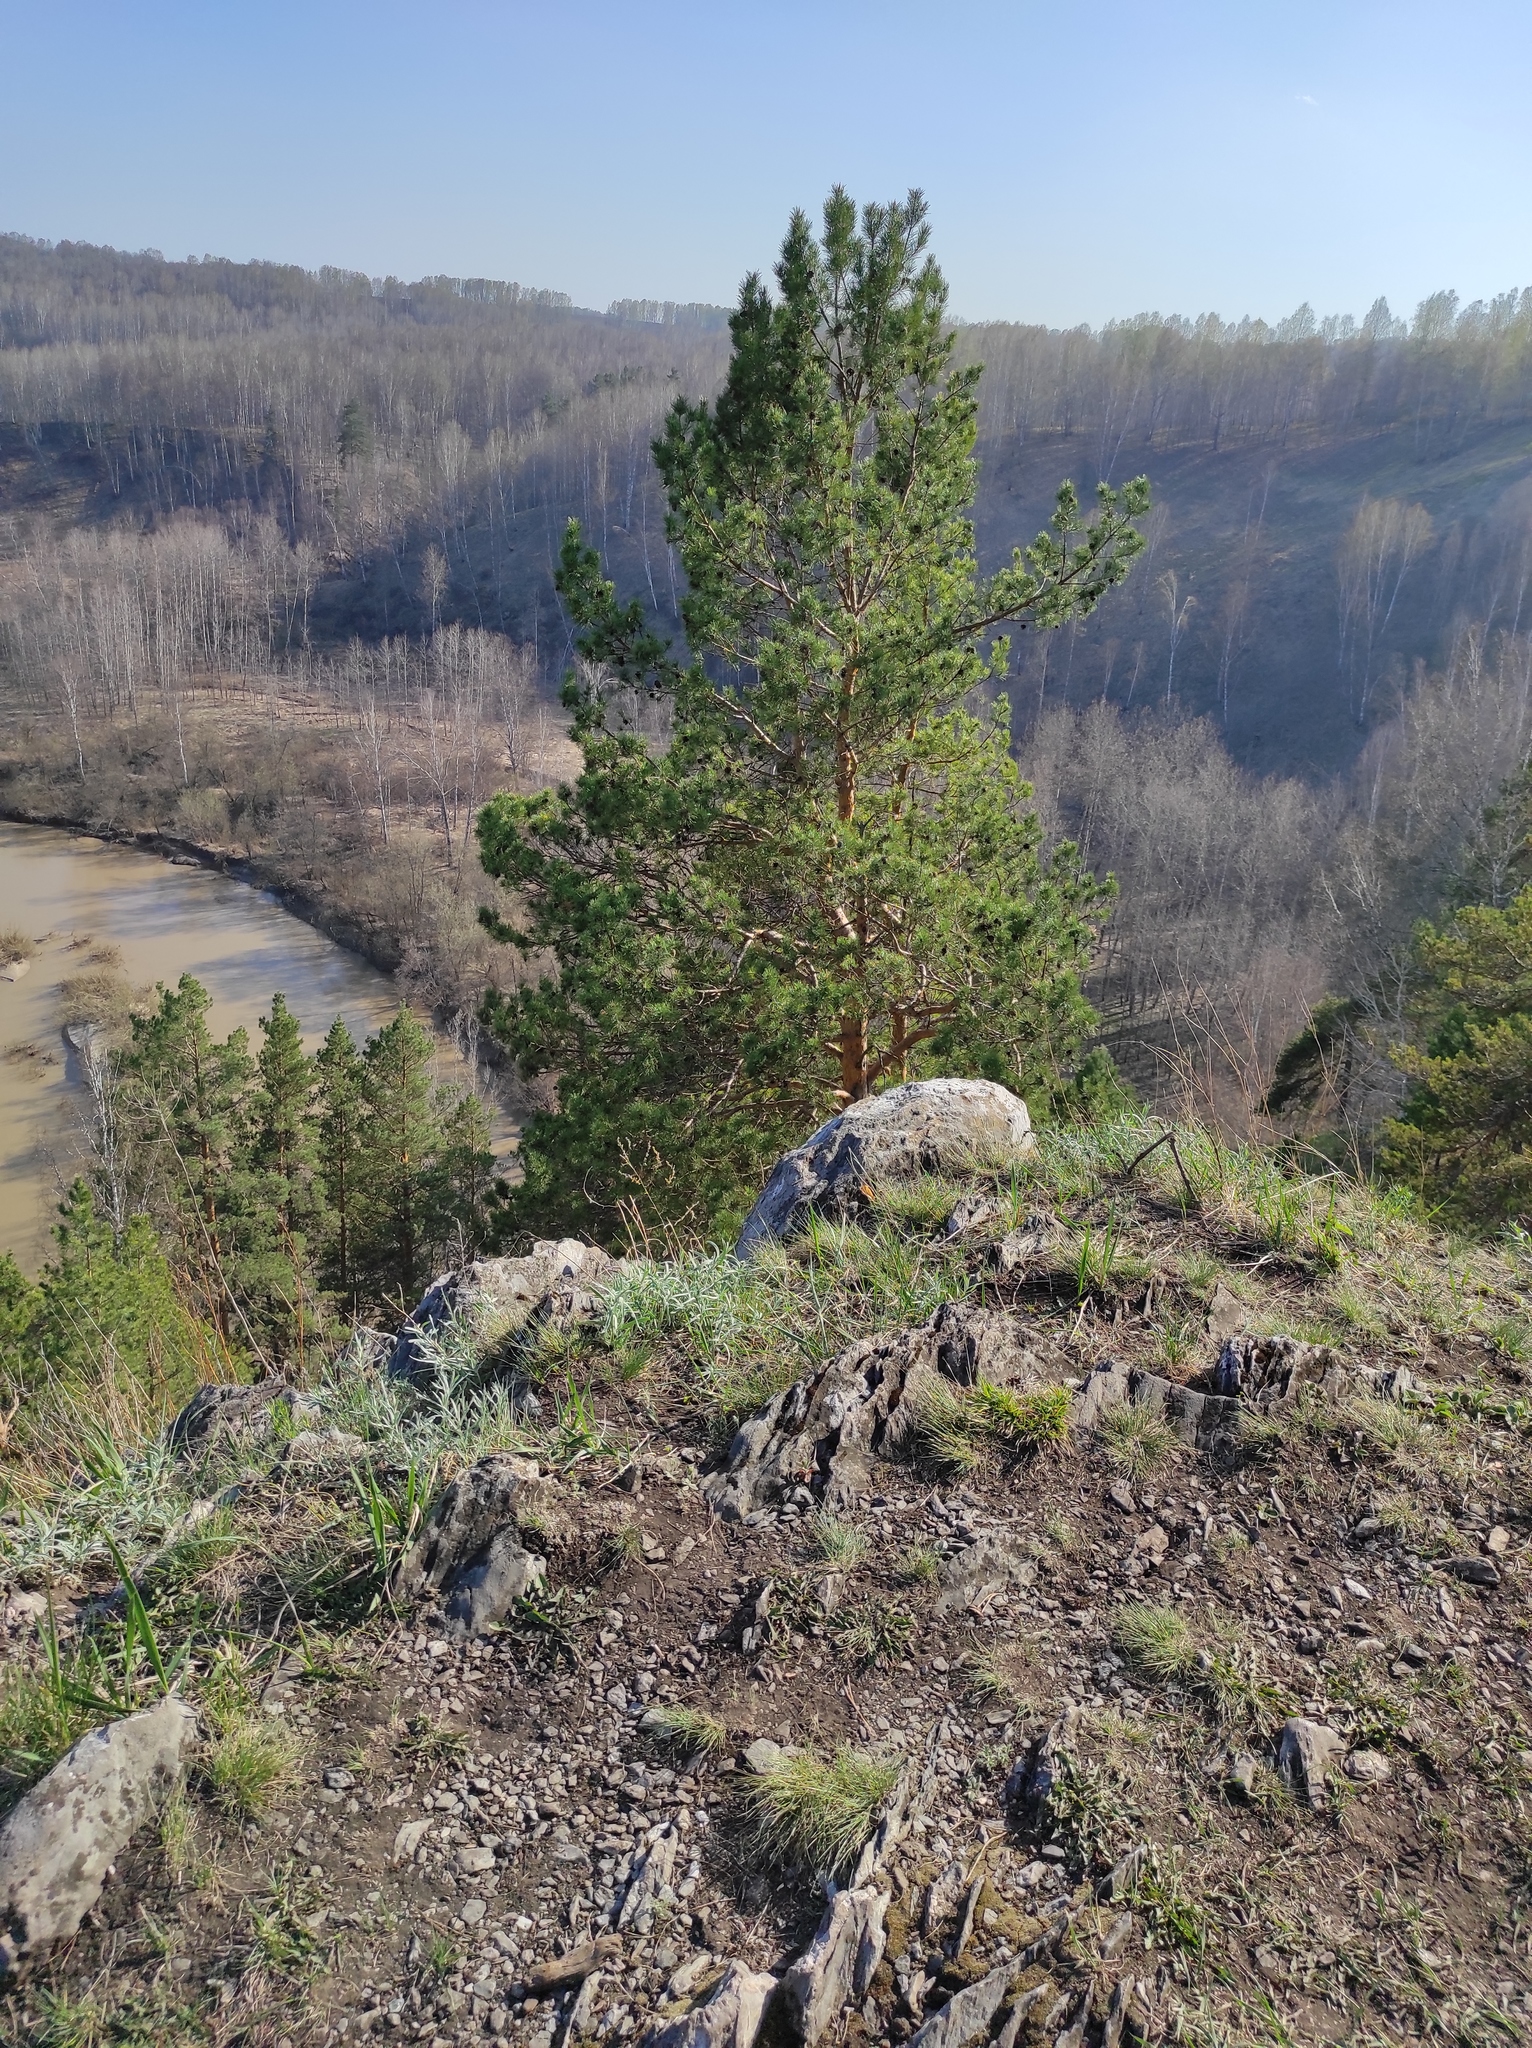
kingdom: Plantae
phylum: Tracheophyta
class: Pinopsida
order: Pinales
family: Pinaceae
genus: Pinus
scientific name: Pinus sylvestris
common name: Scots pine
